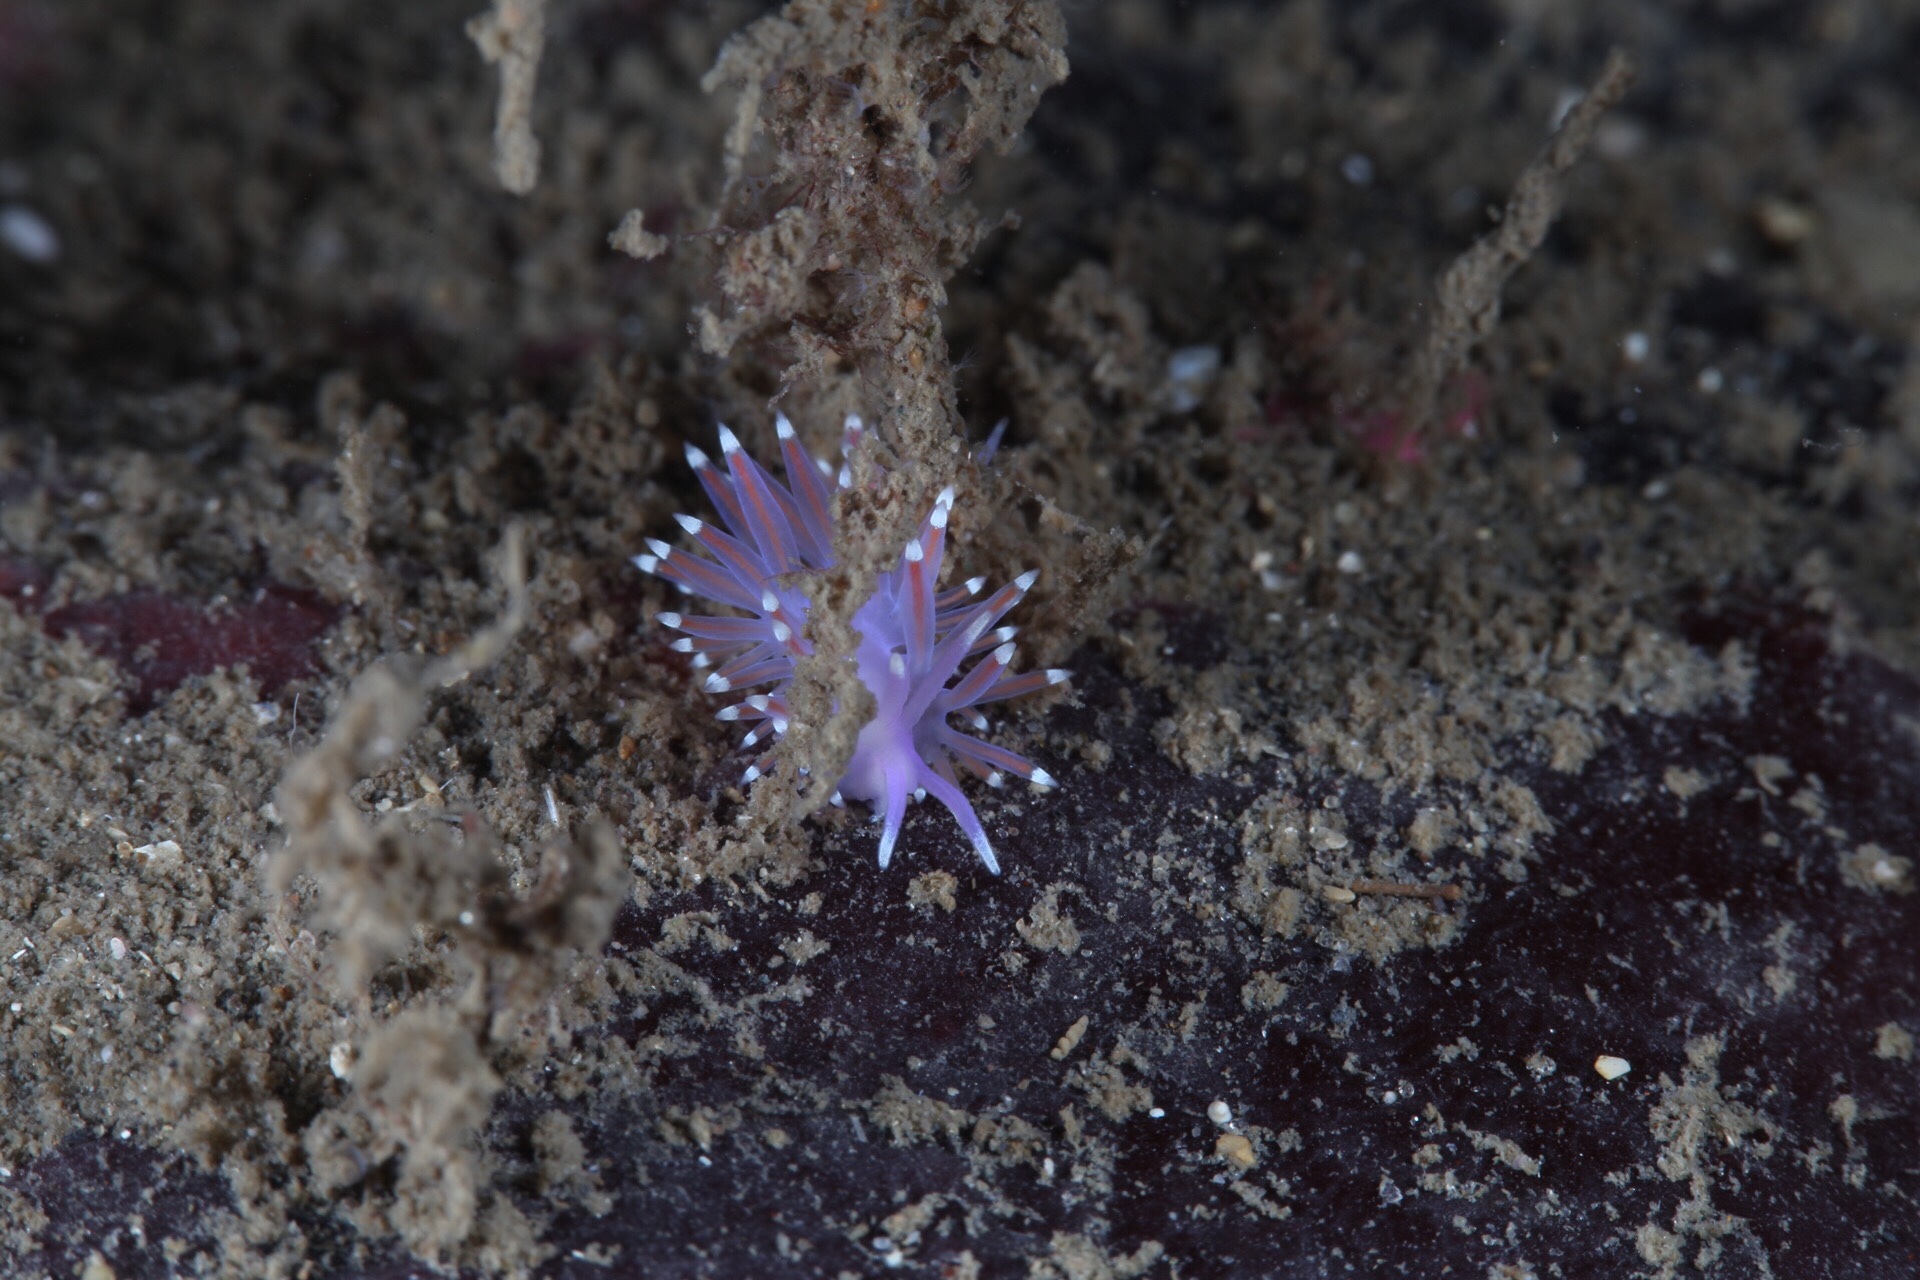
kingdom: Animalia
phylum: Mollusca
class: Gastropoda
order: Nudibranchia
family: Flabellinidae
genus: Edmundsella
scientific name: Edmundsella pedata
